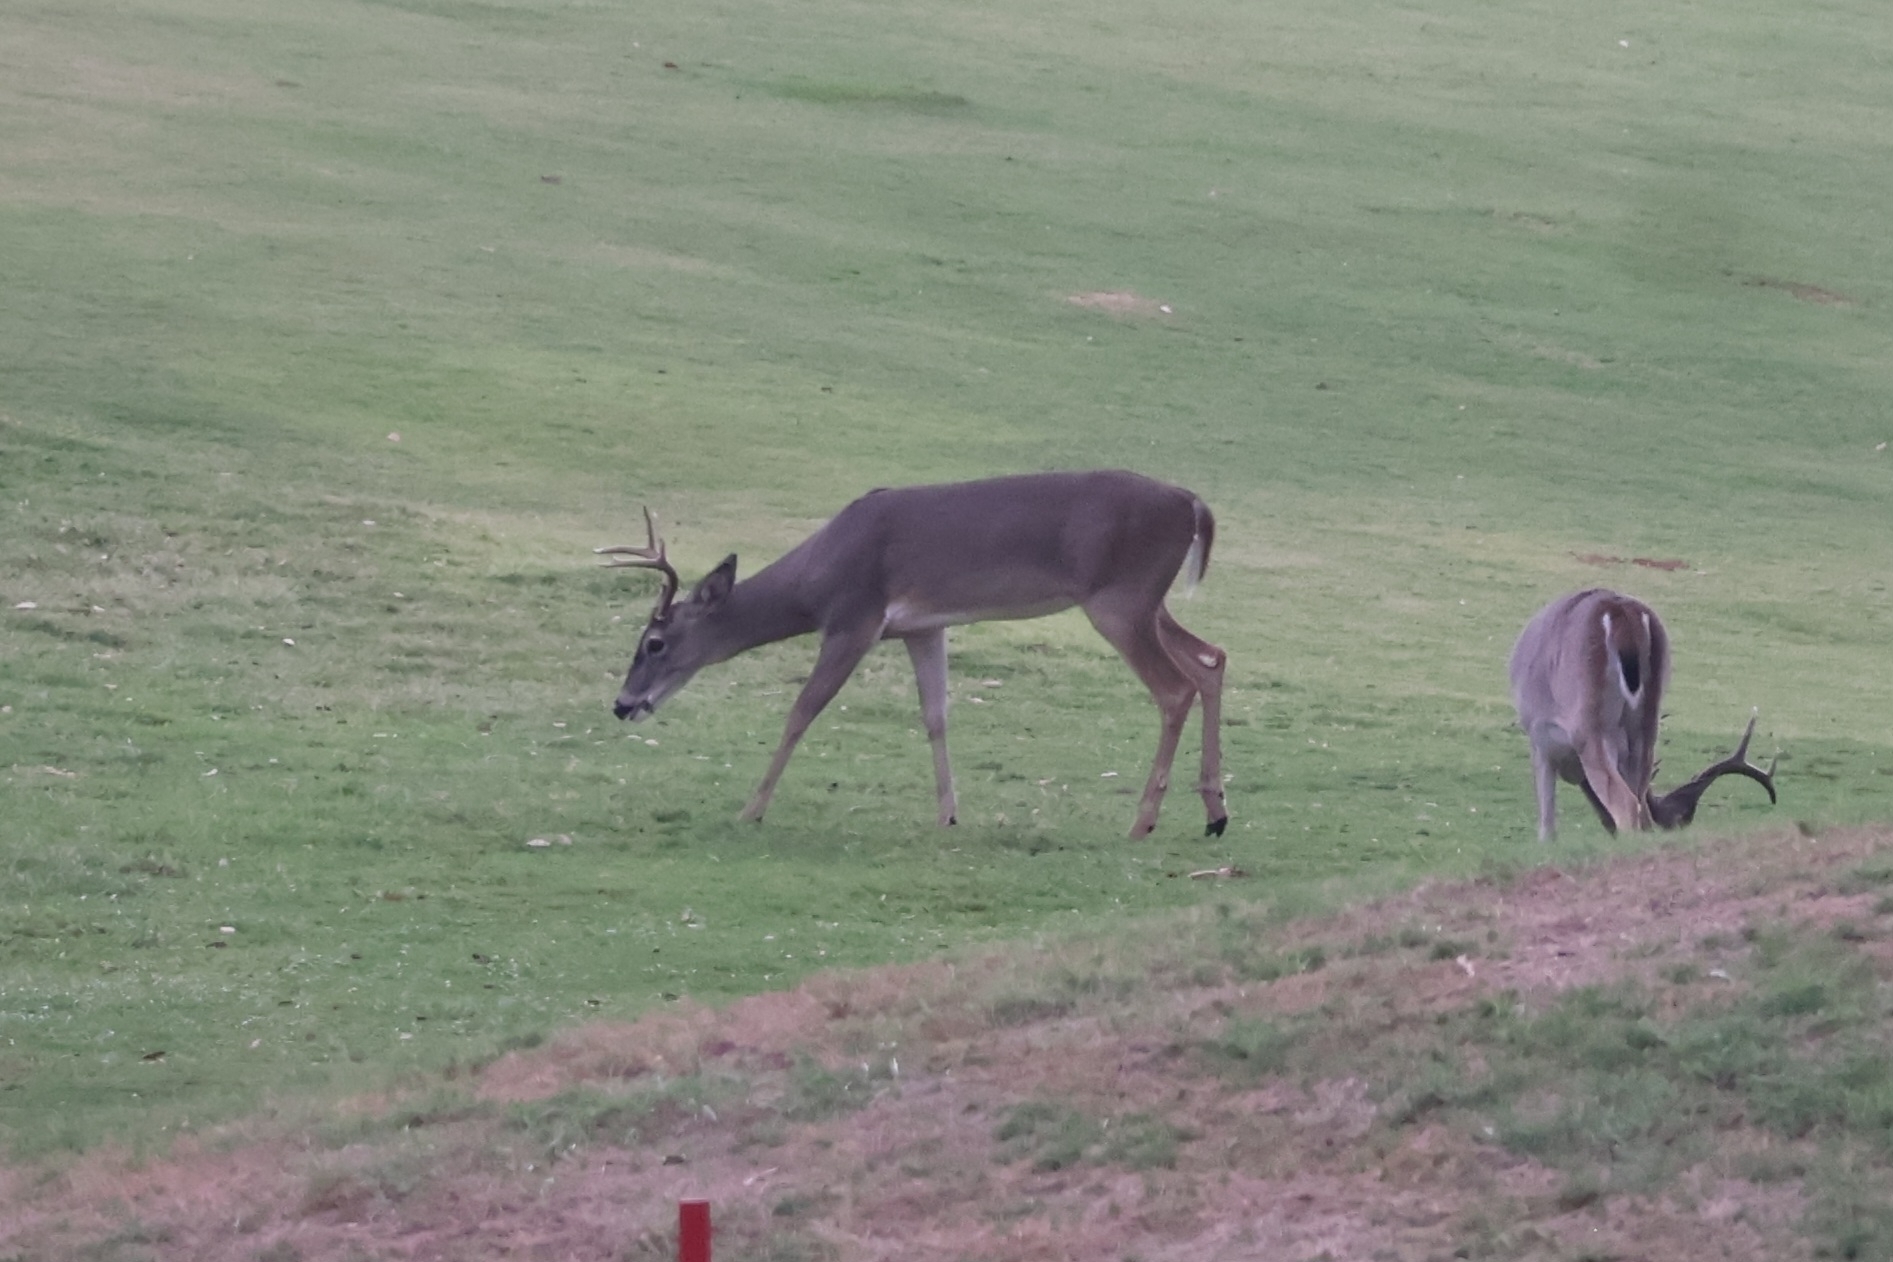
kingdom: Animalia
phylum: Chordata
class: Mammalia
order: Artiodactyla
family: Cervidae
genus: Odocoileus
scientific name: Odocoileus virginianus
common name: White-tailed deer
